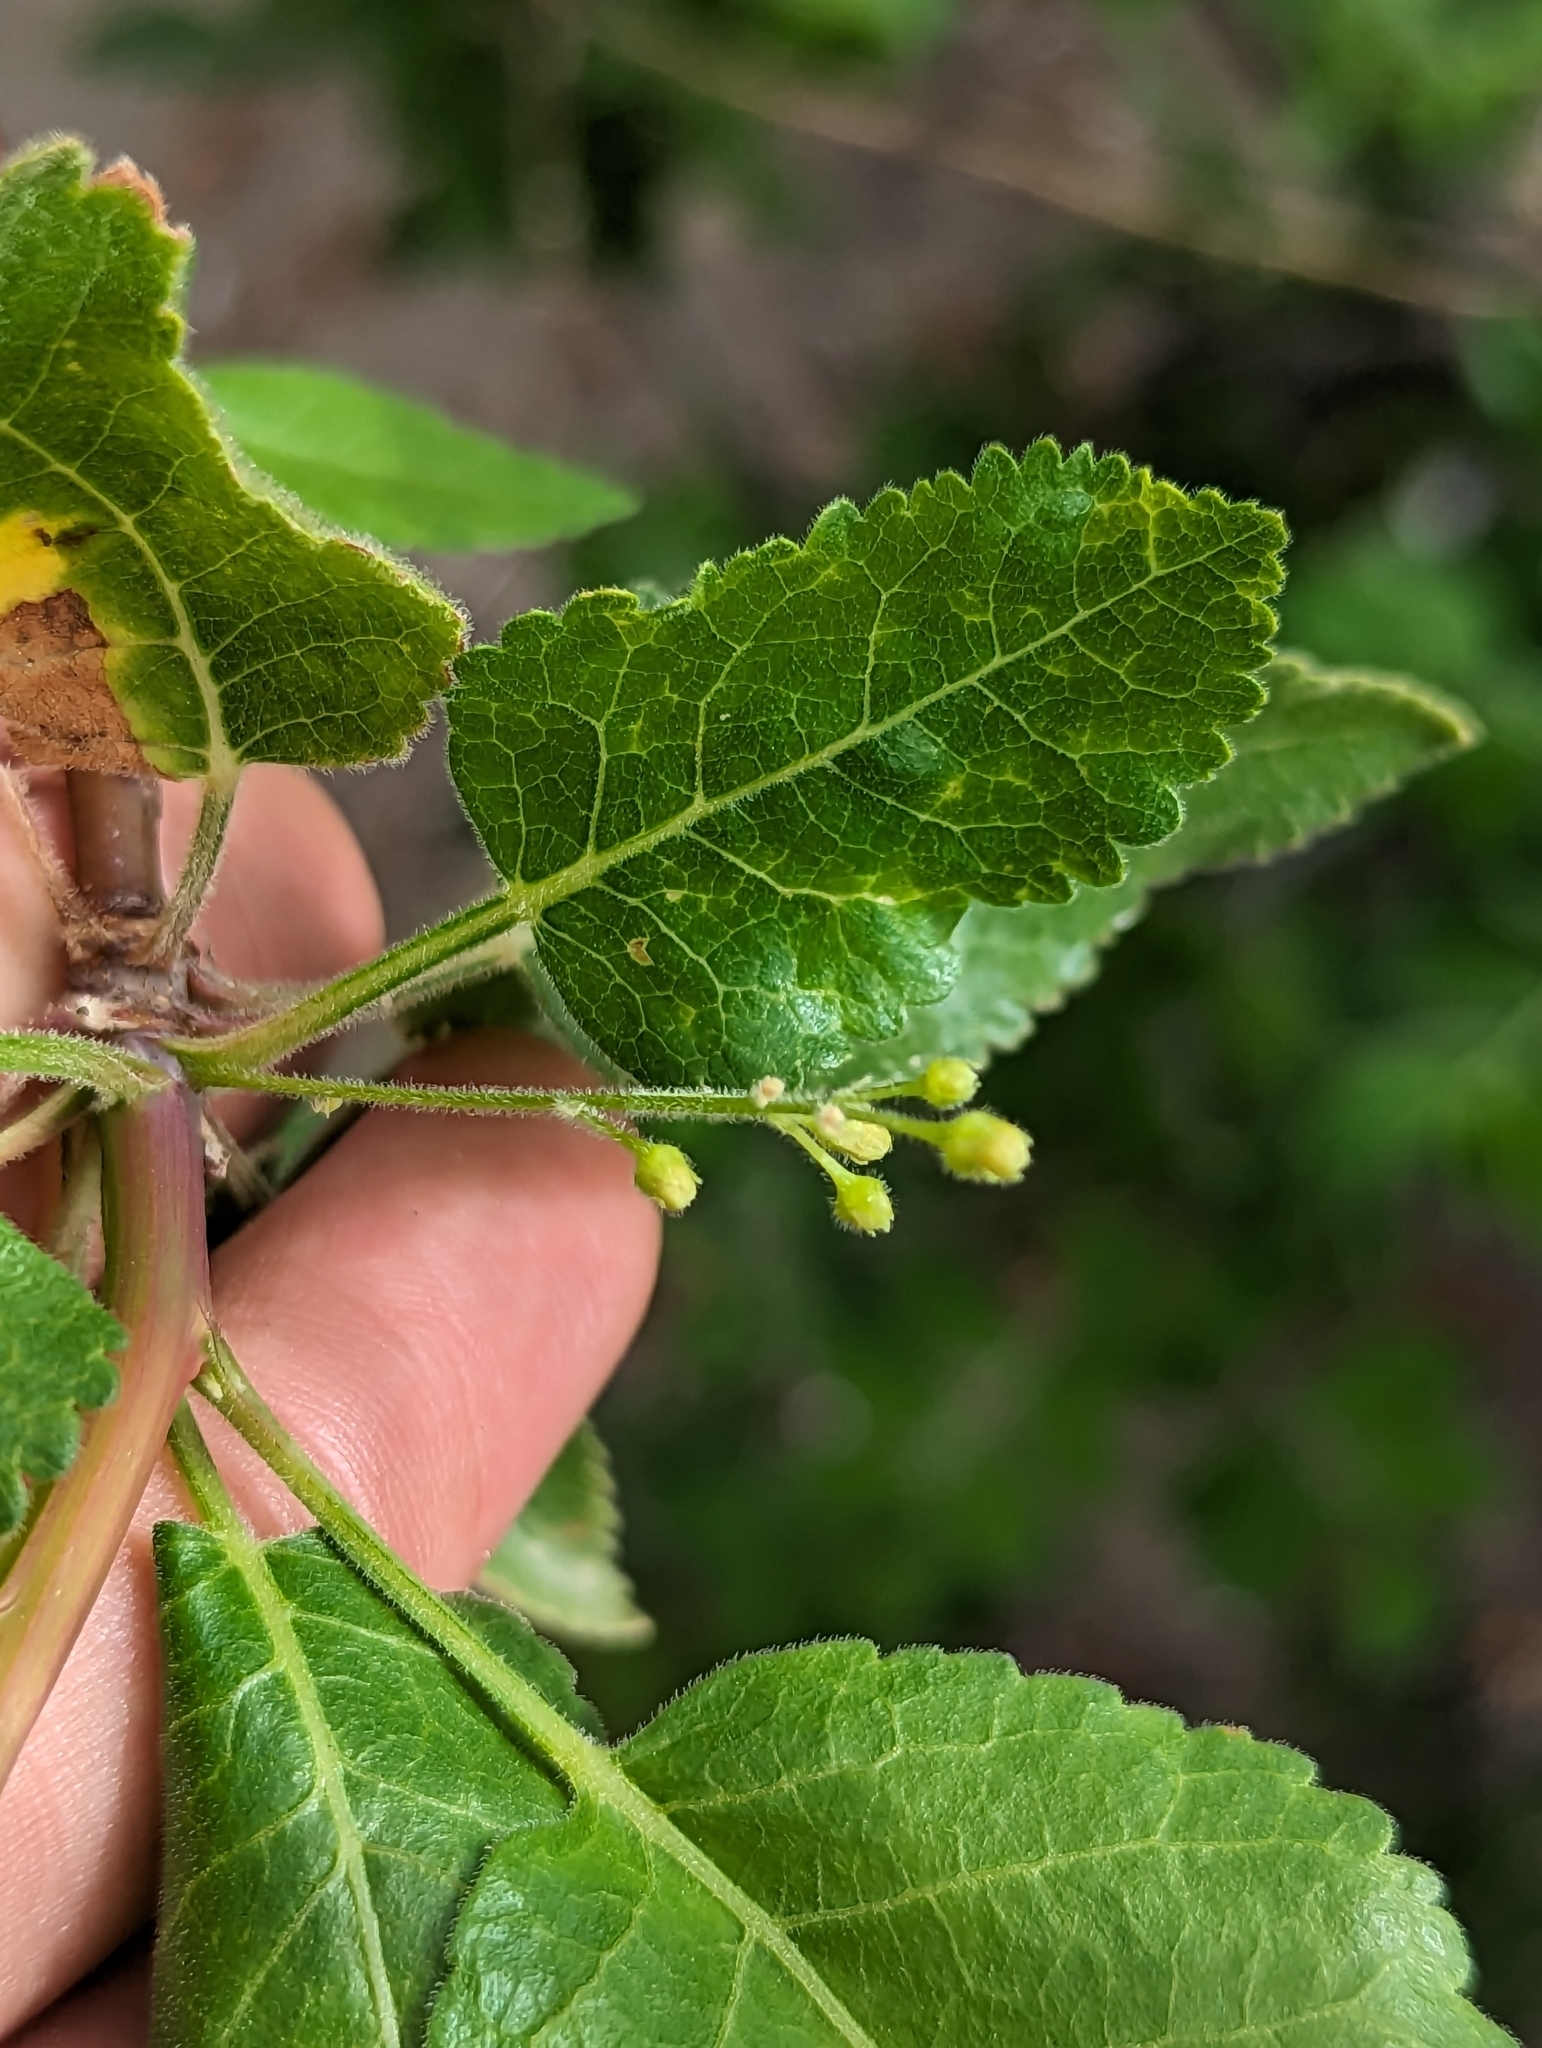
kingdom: Plantae
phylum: Tracheophyta
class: Magnoliopsida
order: Sapindales
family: Burseraceae
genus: Bursera
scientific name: Bursera epinnata
